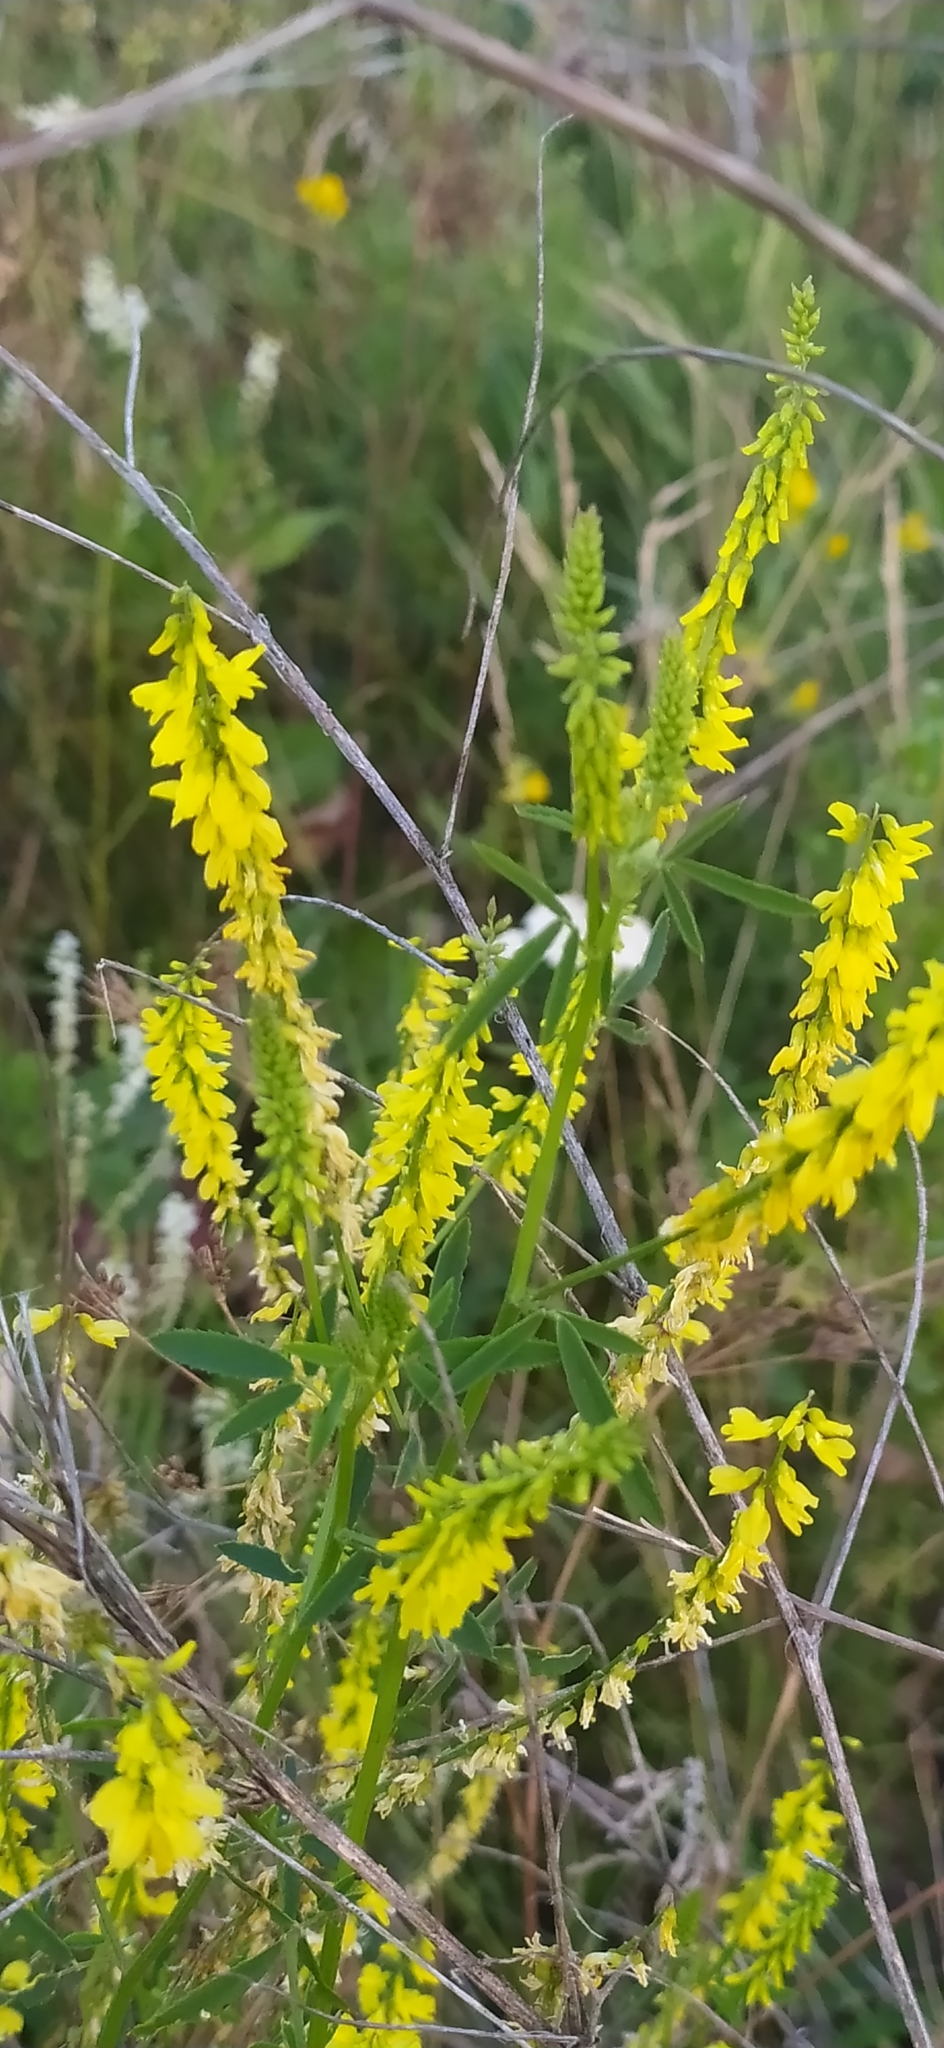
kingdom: Plantae
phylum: Tracheophyta
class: Magnoliopsida
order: Fabales
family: Fabaceae
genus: Melilotus
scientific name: Melilotus officinalis
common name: Sweetclover
